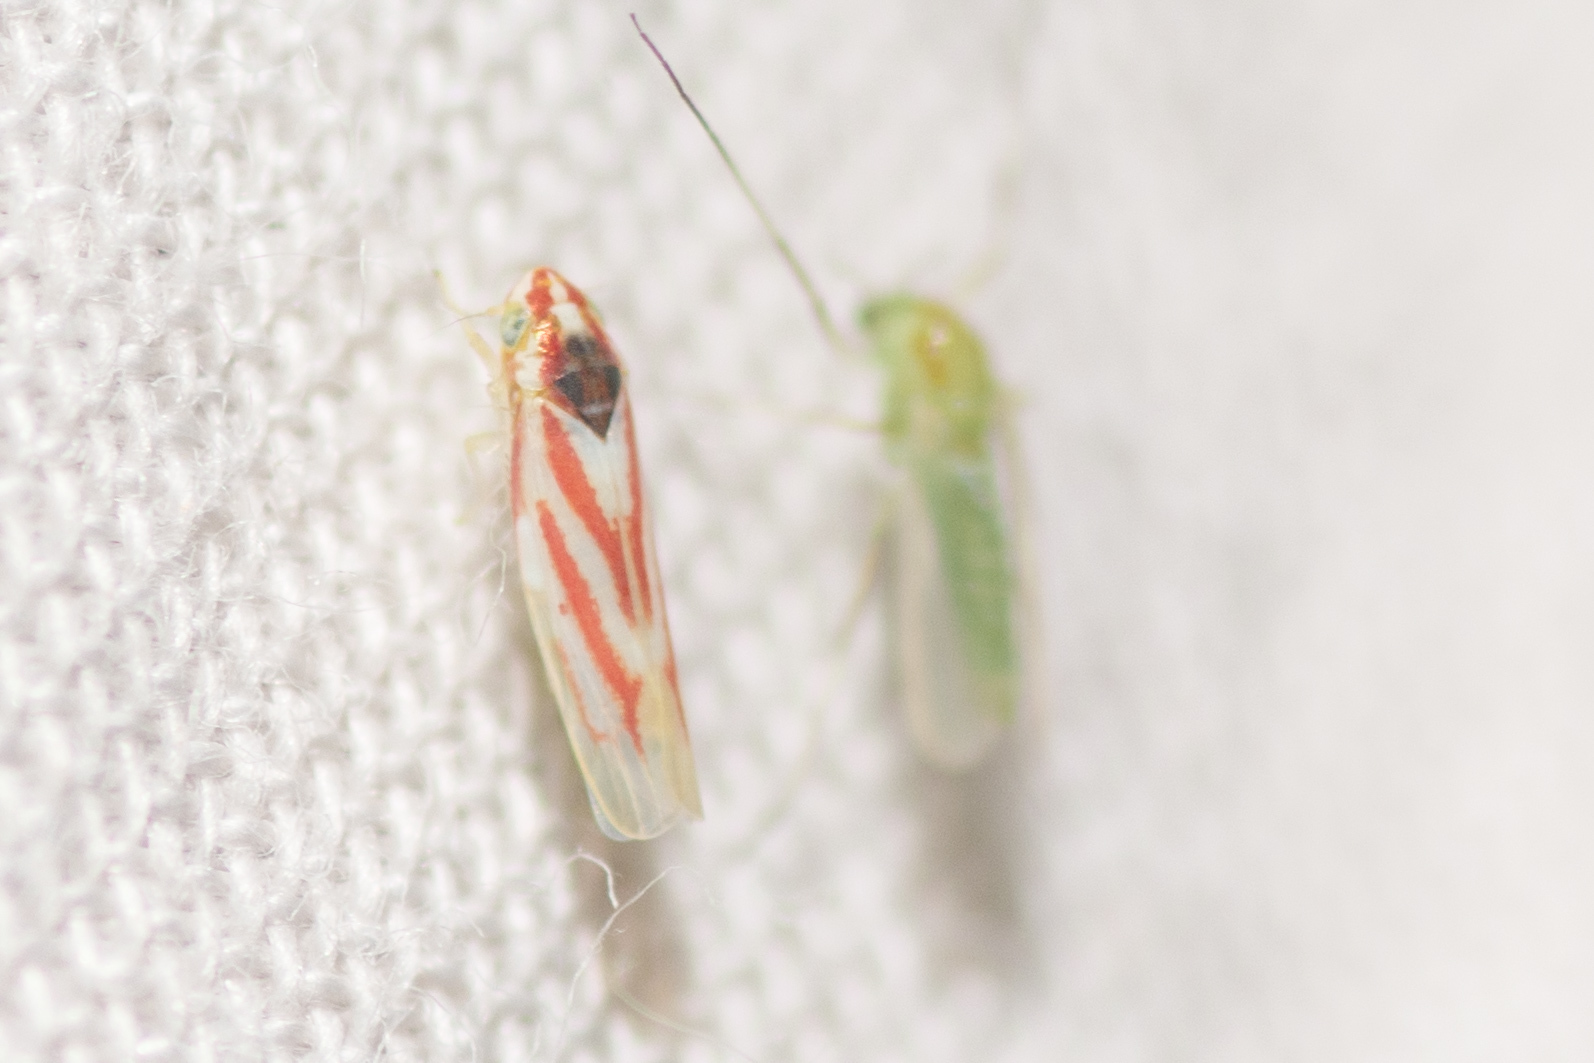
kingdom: Animalia
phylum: Arthropoda
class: Insecta
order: Hemiptera
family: Cicadellidae
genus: Erythridula
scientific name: Erythridula noeva
